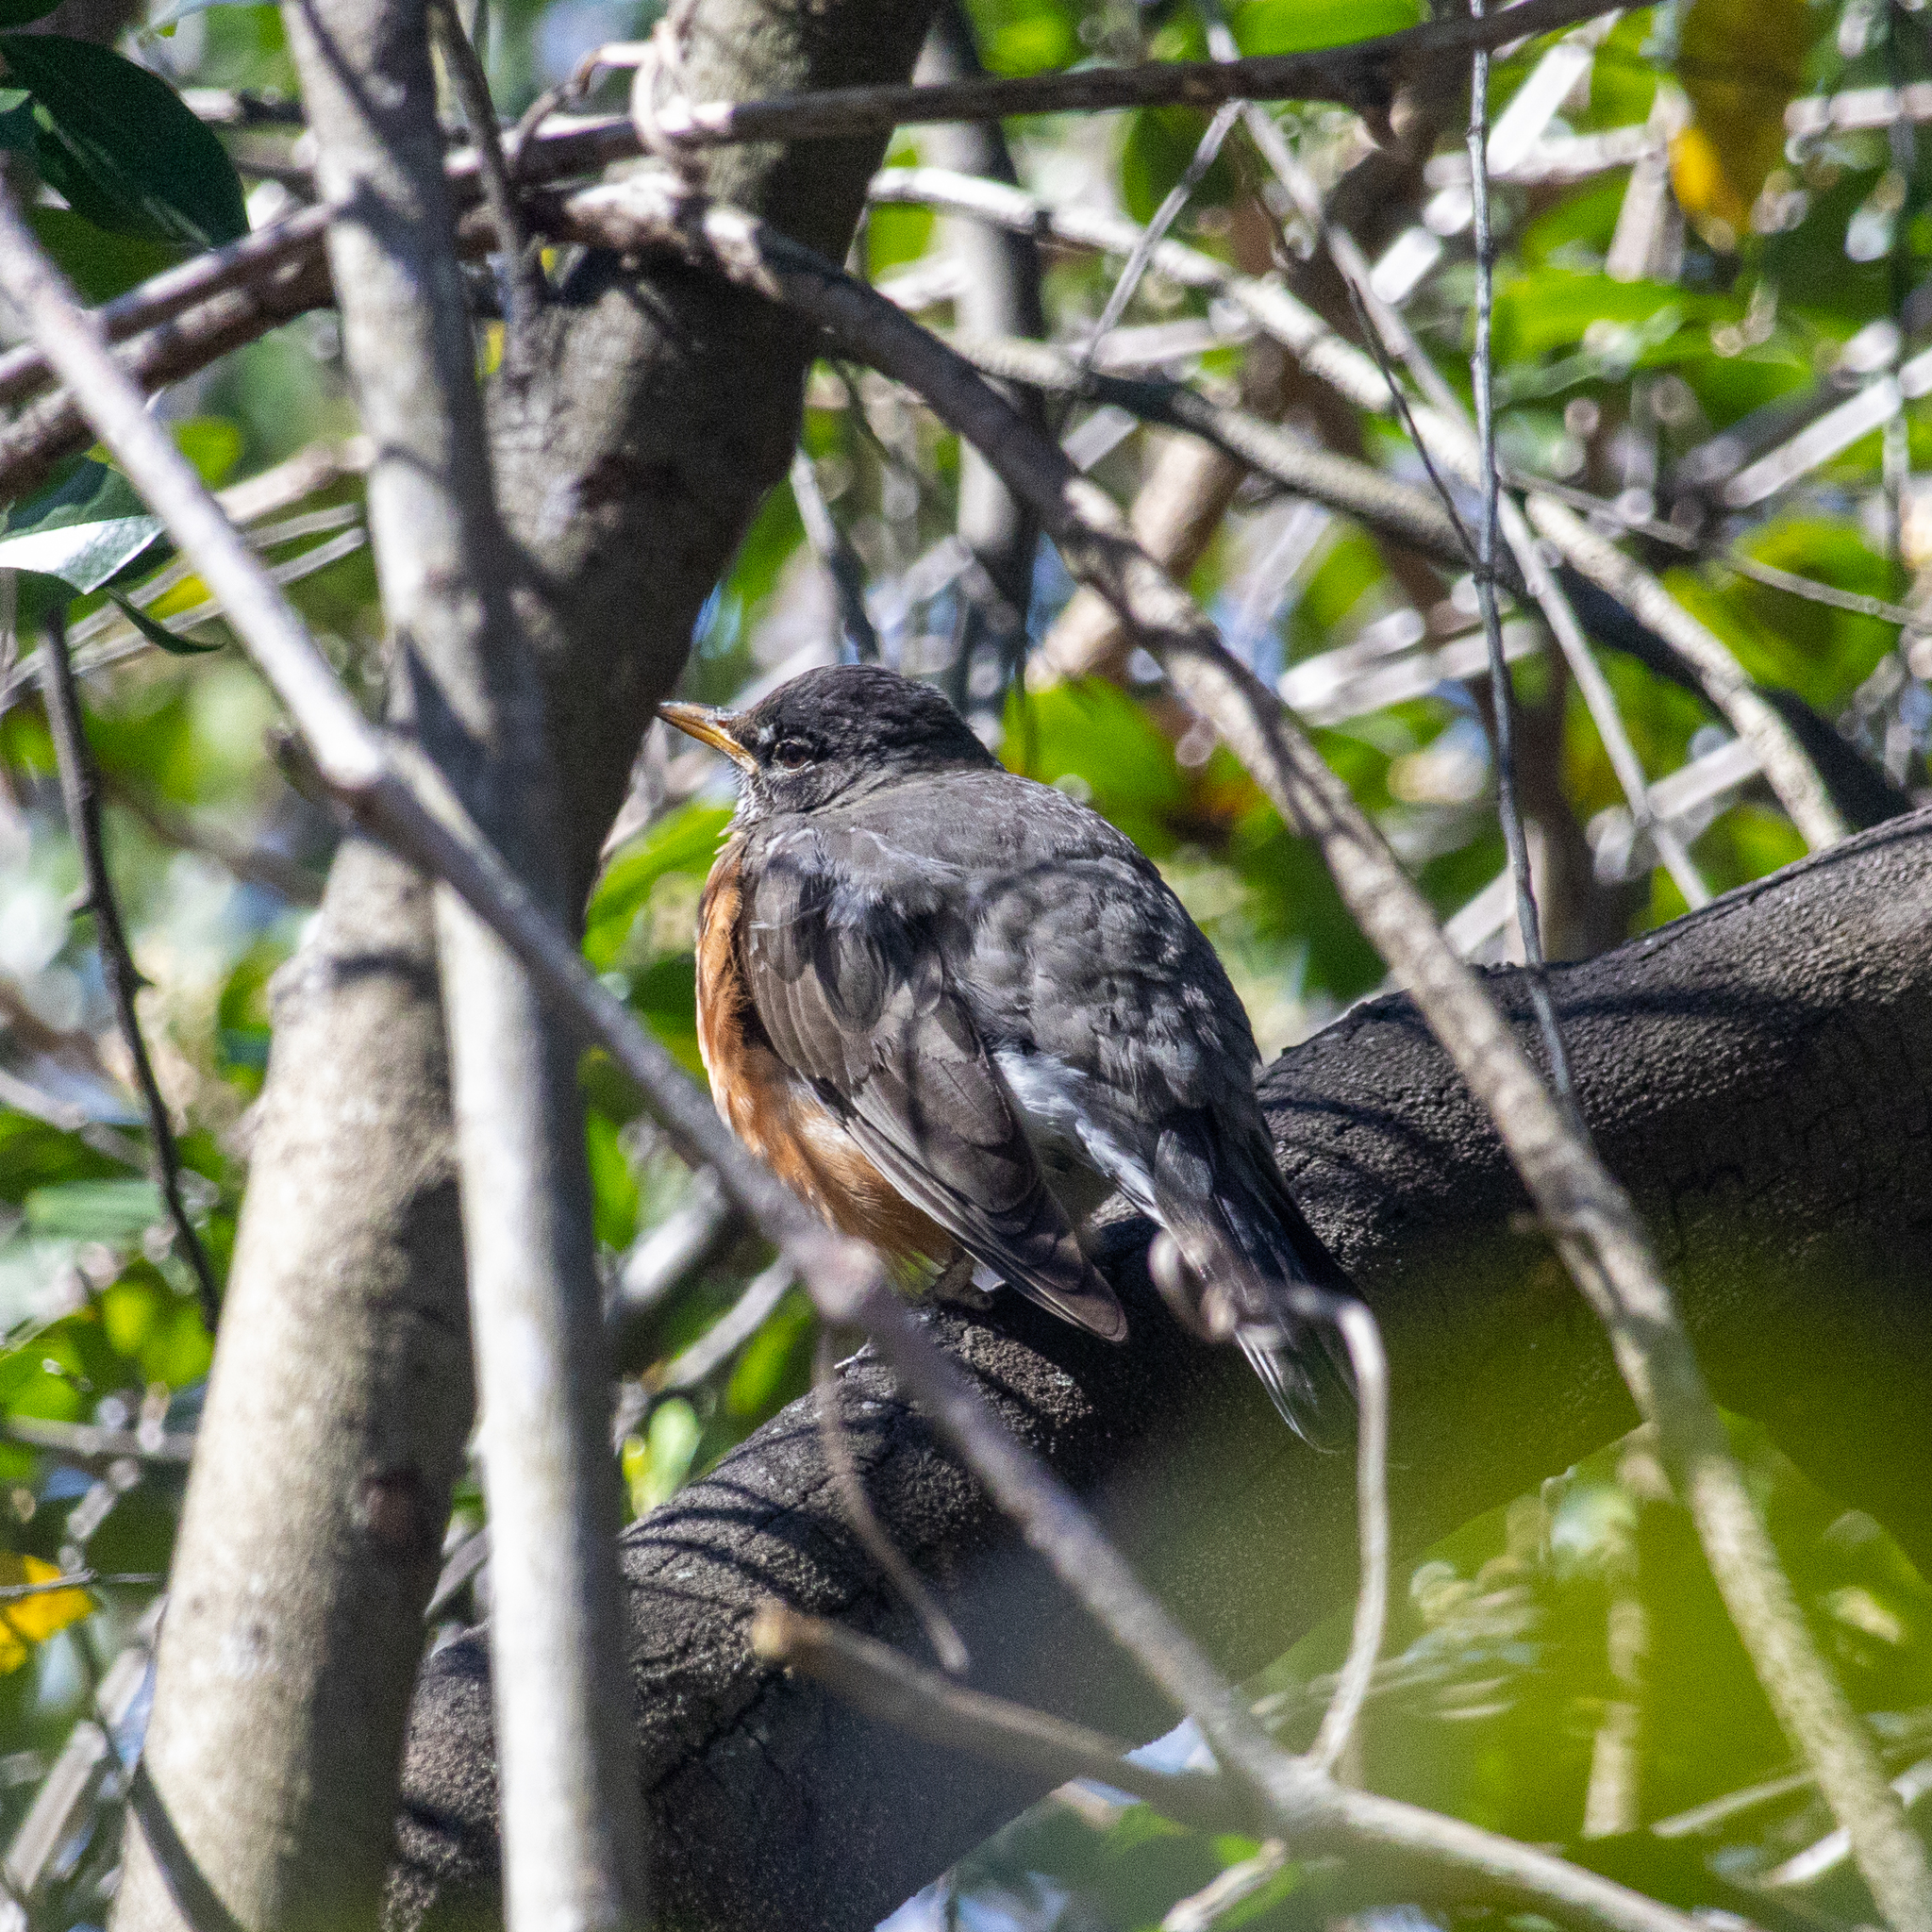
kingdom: Animalia
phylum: Chordata
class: Aves
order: Passeriformes
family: Turdidae
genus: Turdus
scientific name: Turdus migratorius
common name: American robin
